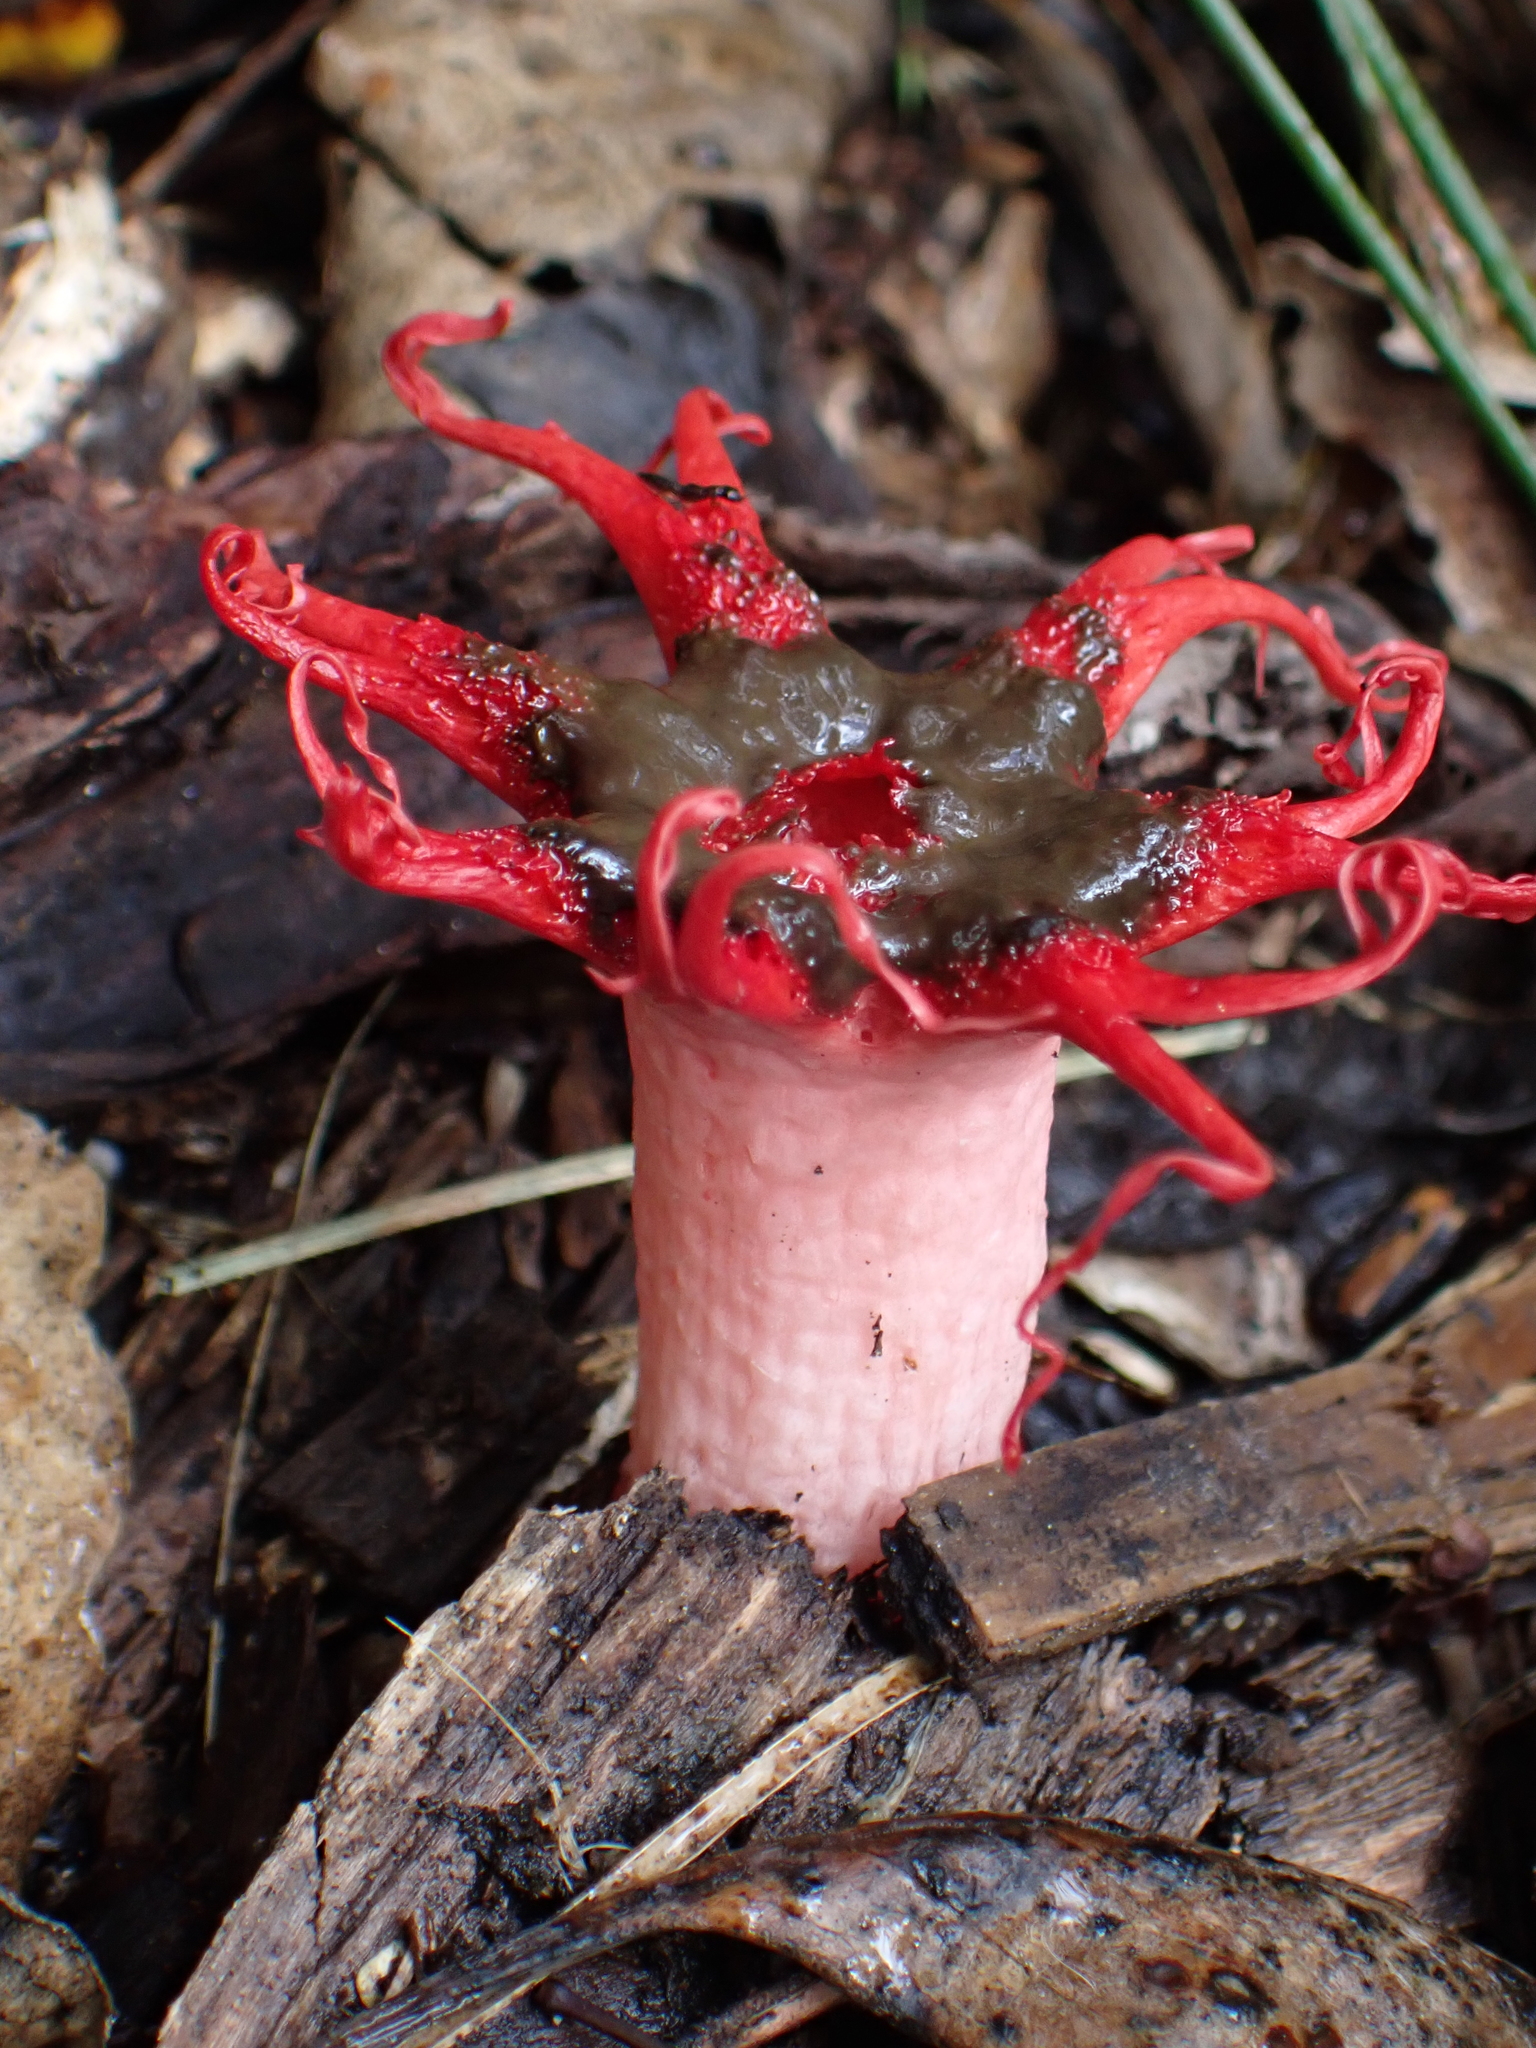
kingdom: Fungi
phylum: Basidiomycota
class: Agaricomycetes
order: Phallales
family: Phallaceae
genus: Aseroe
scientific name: Aseroe rubra
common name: Starfish fungus
